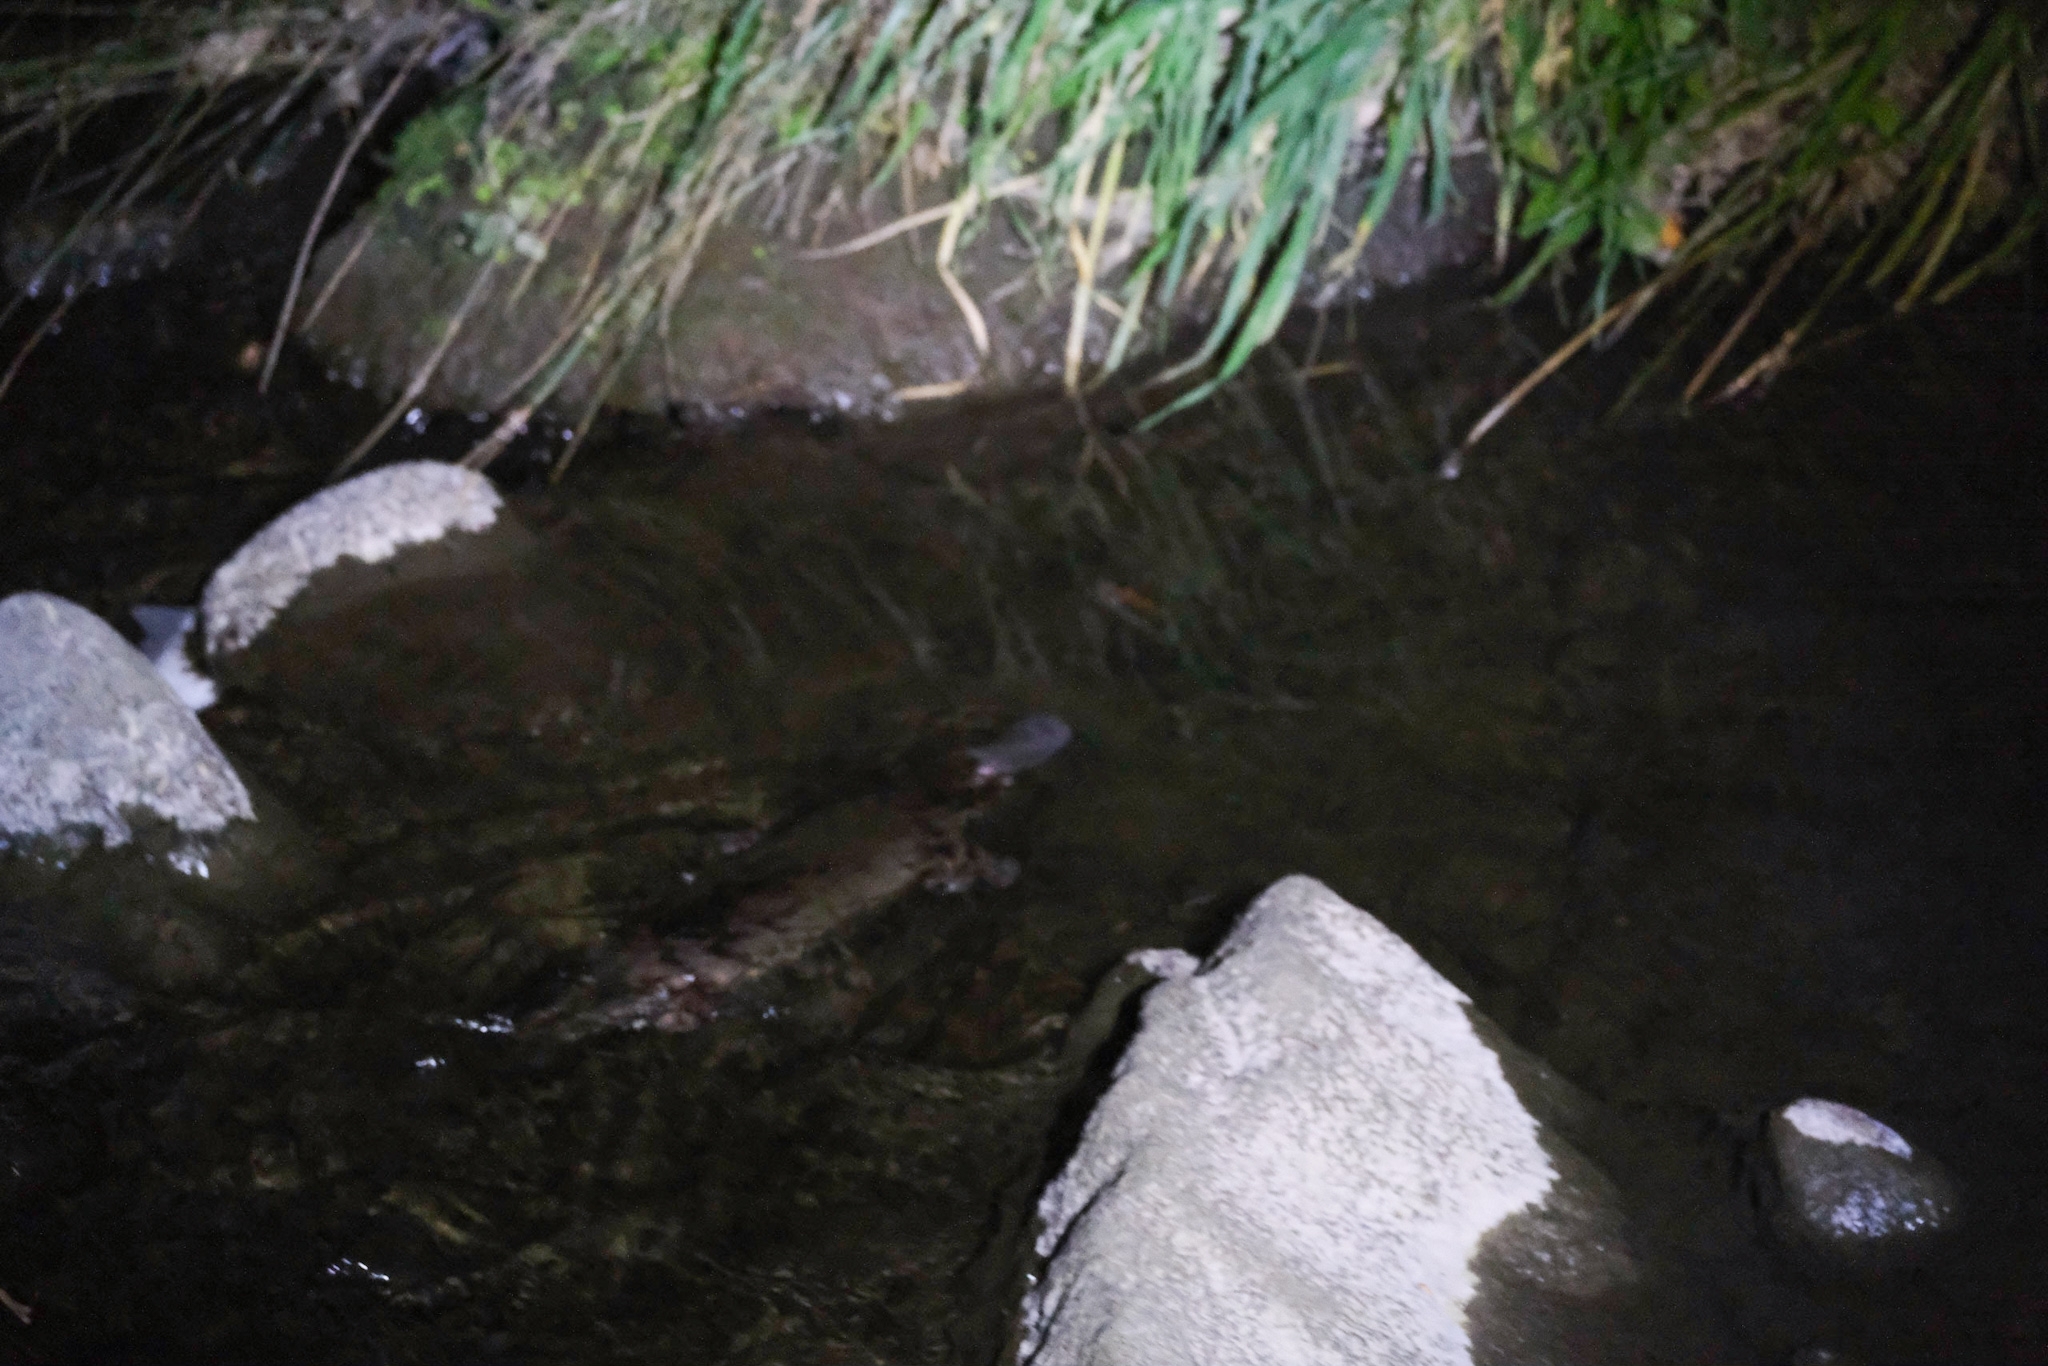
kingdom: Animalia
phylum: Chordata
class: Mammalia
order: Monotremata
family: Ornithorhynchidae
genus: Ornithorhynchus
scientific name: Ornithorhynchus anatinus
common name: Platypus
